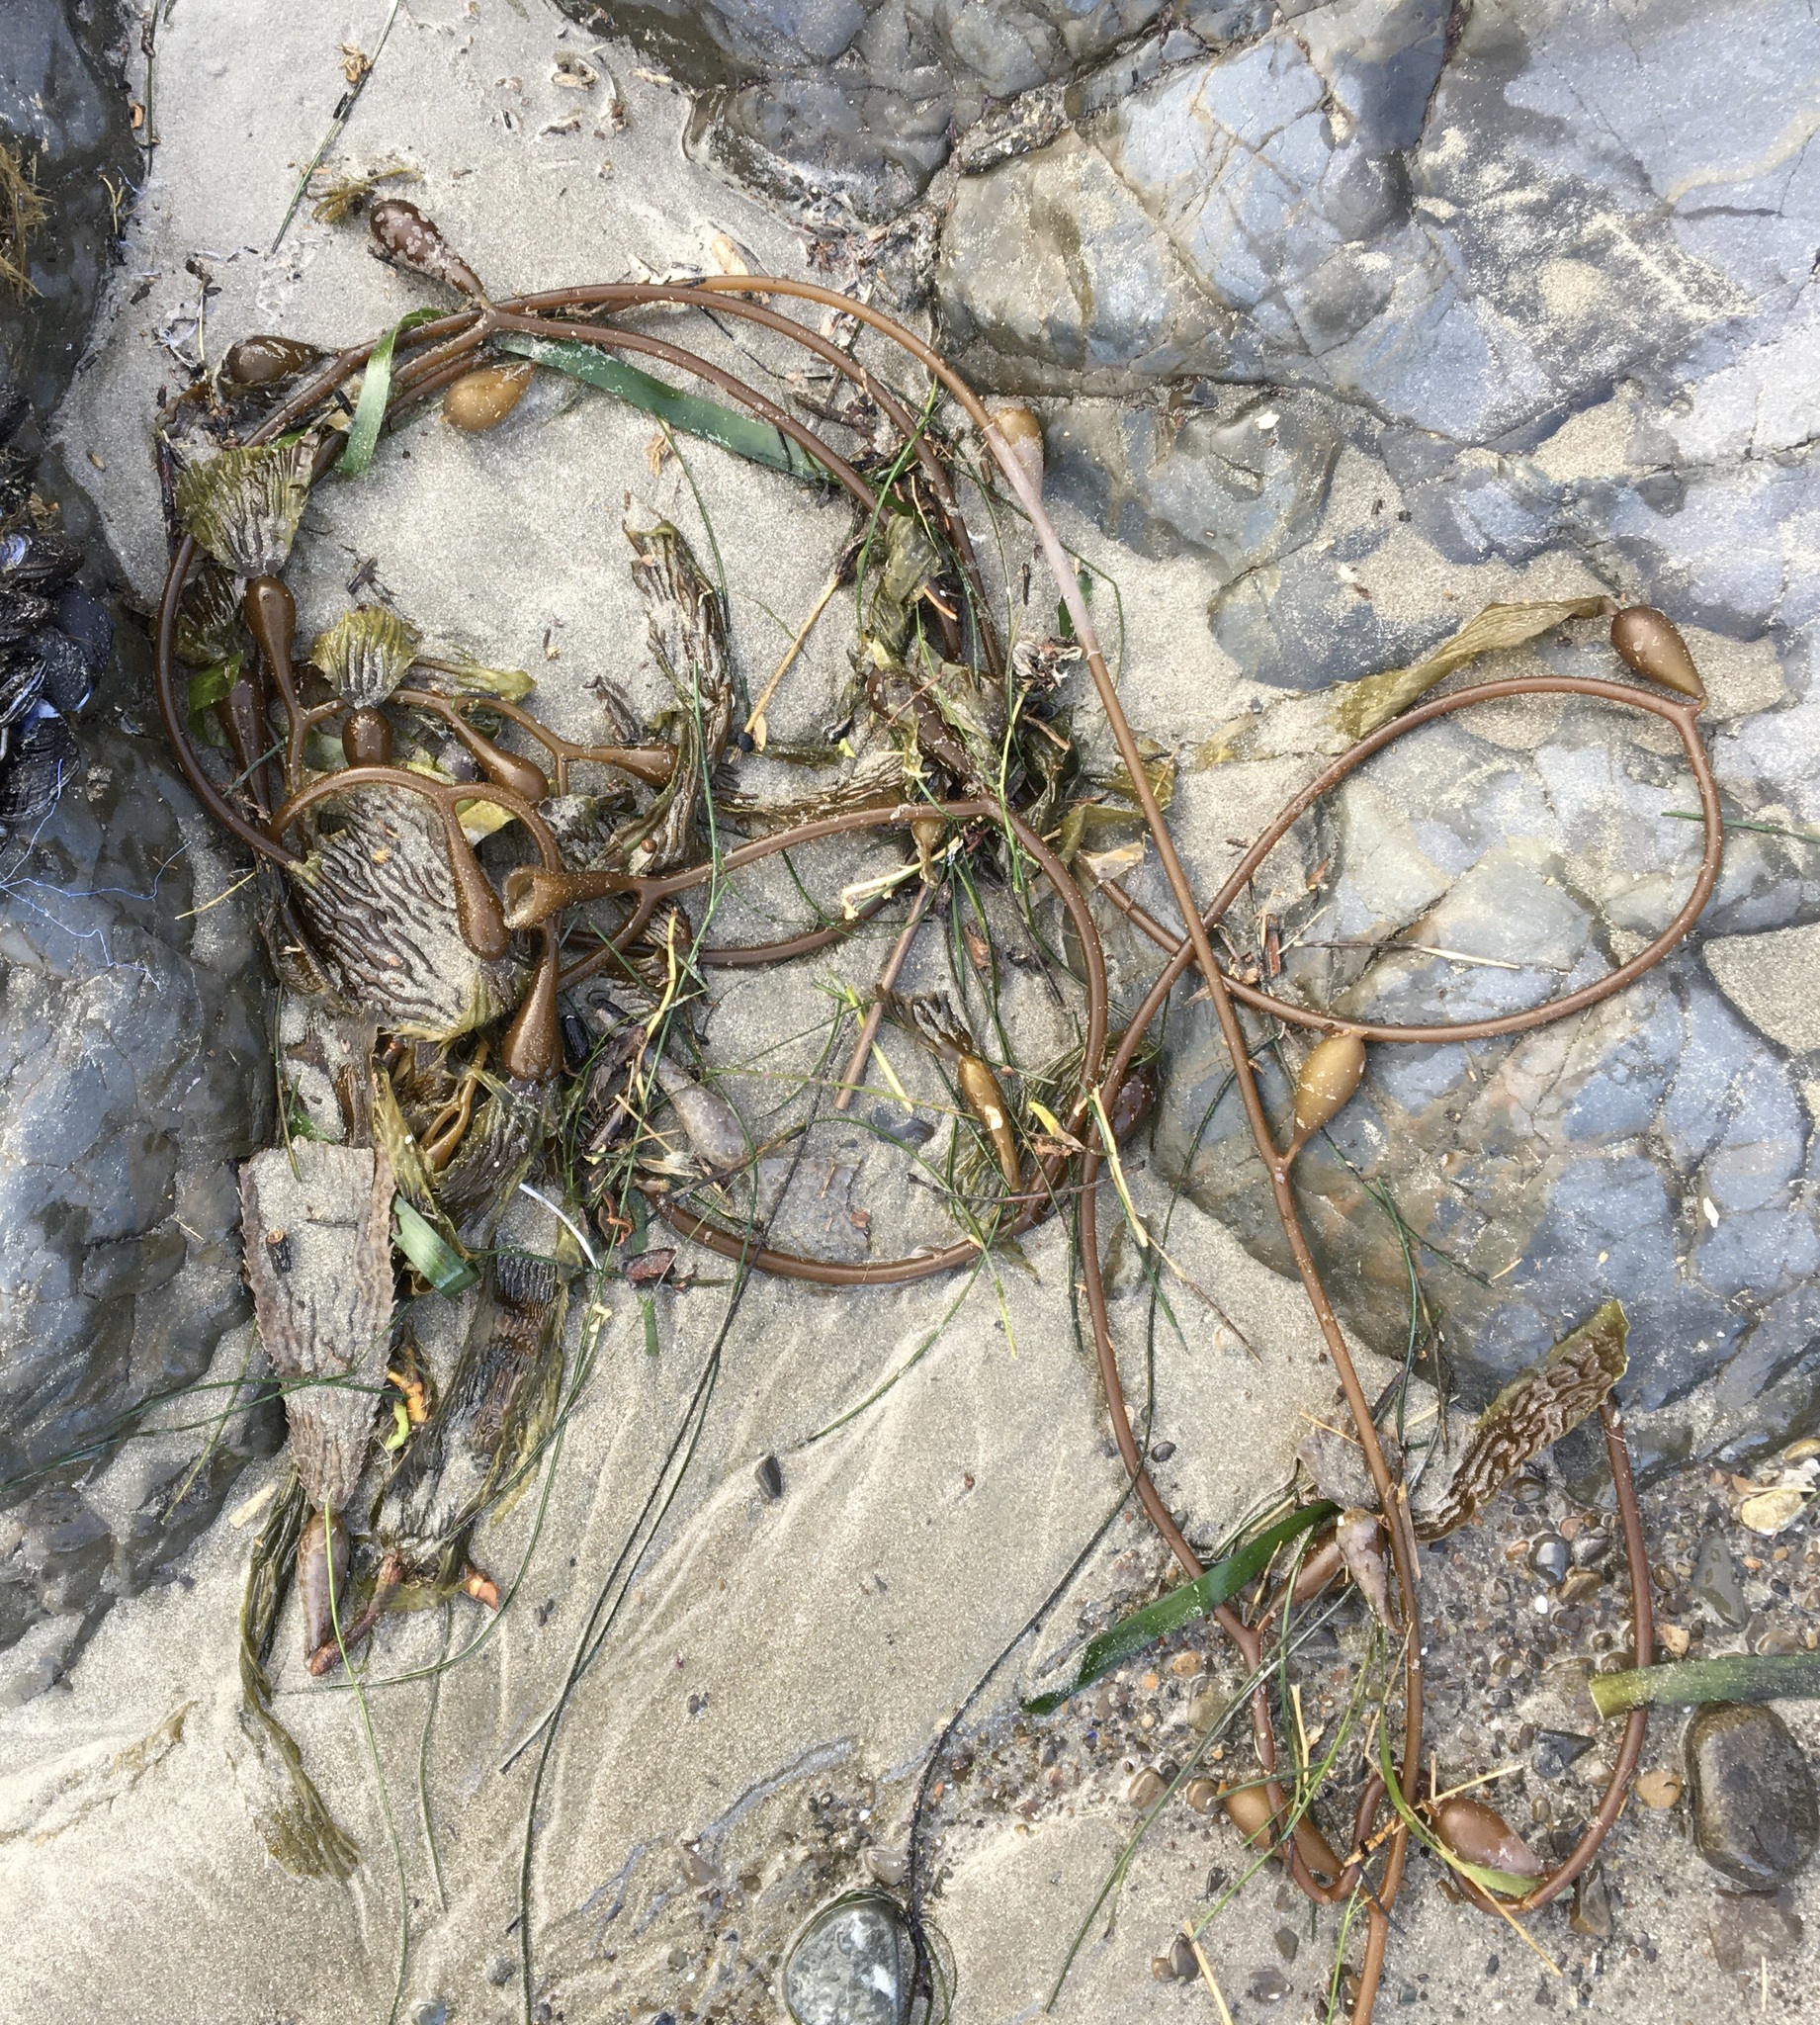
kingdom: Chromista
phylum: Ochrophyta
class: Phaeophyceae
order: Laminariales
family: Laminariaceae
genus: Macrocystis
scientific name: Macrocystis pyrifera
